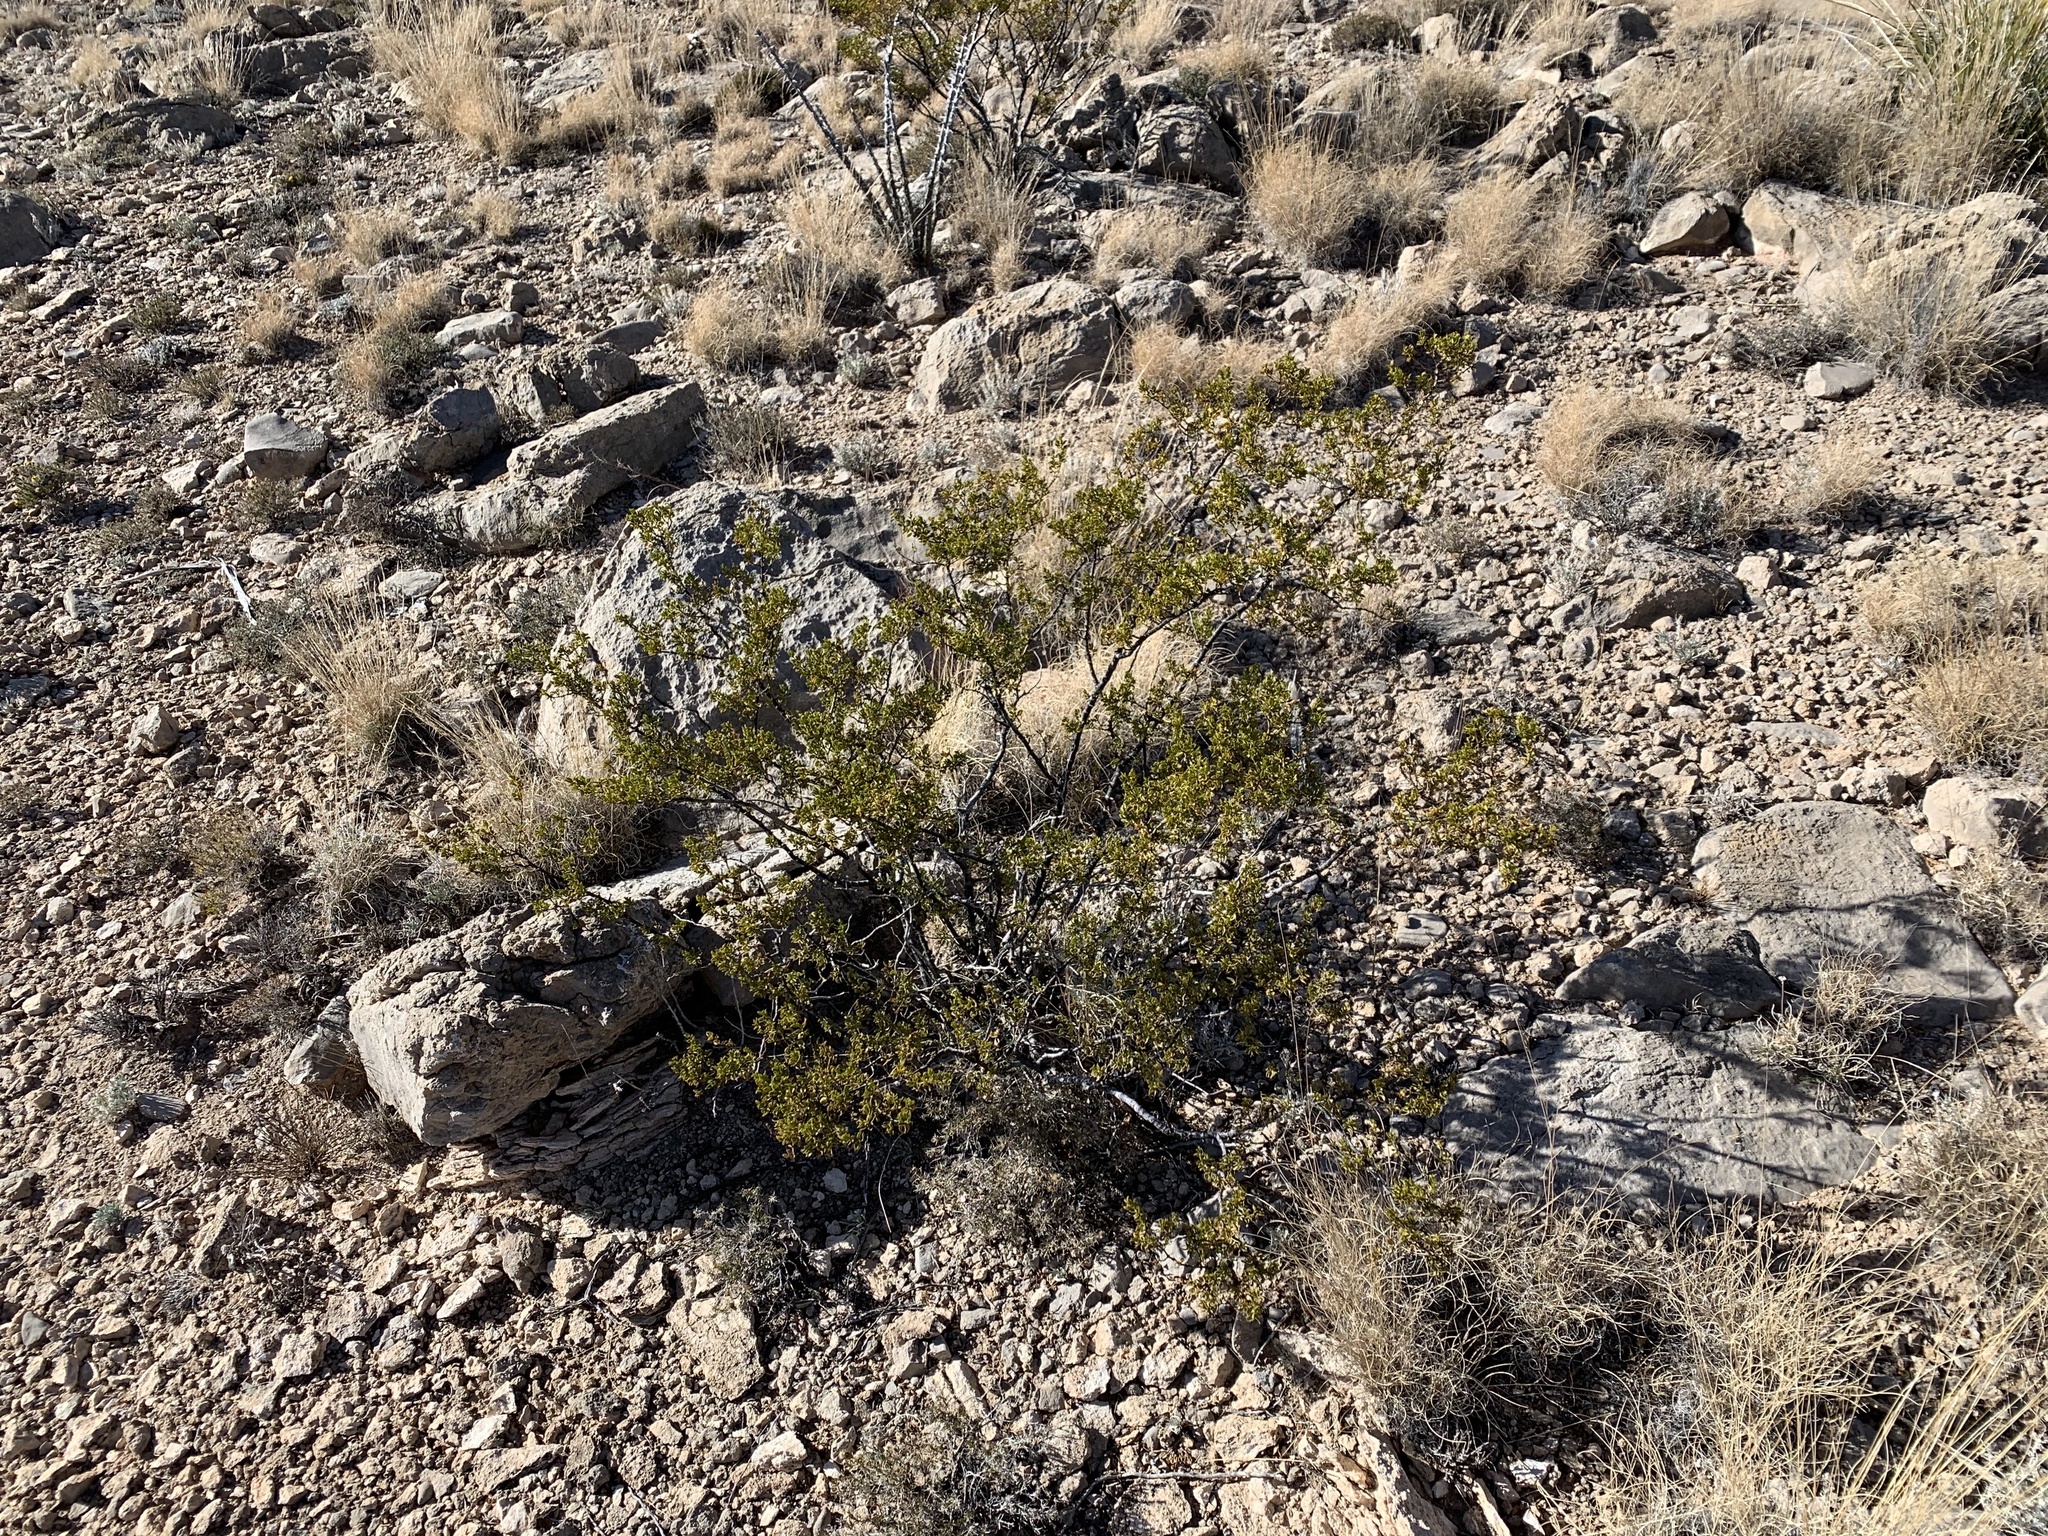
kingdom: Plantae
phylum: Tracheophyta
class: Magnoliopsida
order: Zygophyllales
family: Zygophyllaceae
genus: Larrea
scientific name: Larrea tridentata
